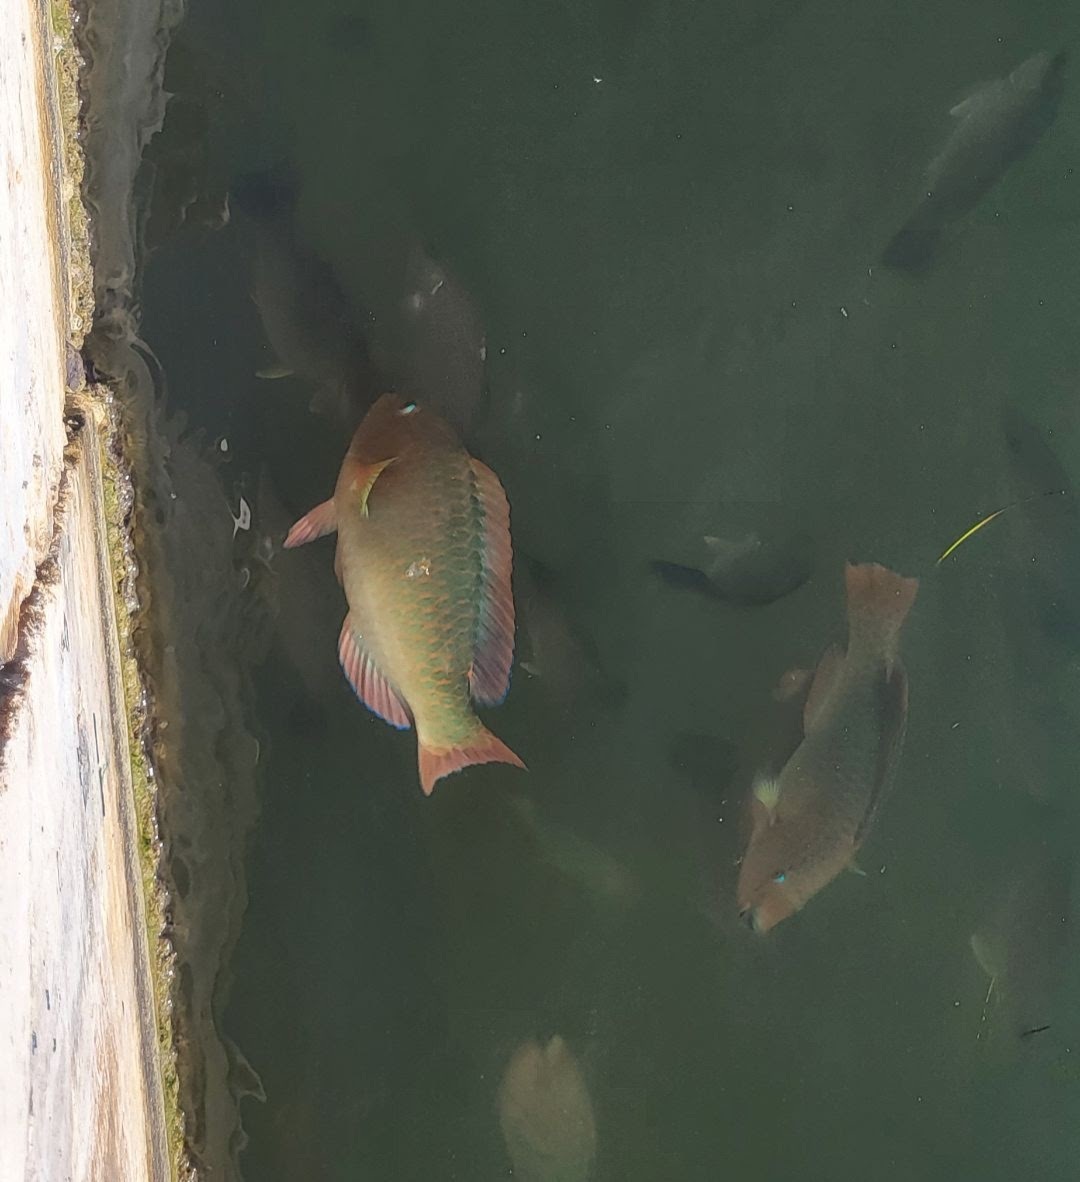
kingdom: Animalia
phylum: Chordata
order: Perciformes
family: Scaridae
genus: Scarus
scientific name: Scarus guacamaia
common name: Rainbow parrotfish
